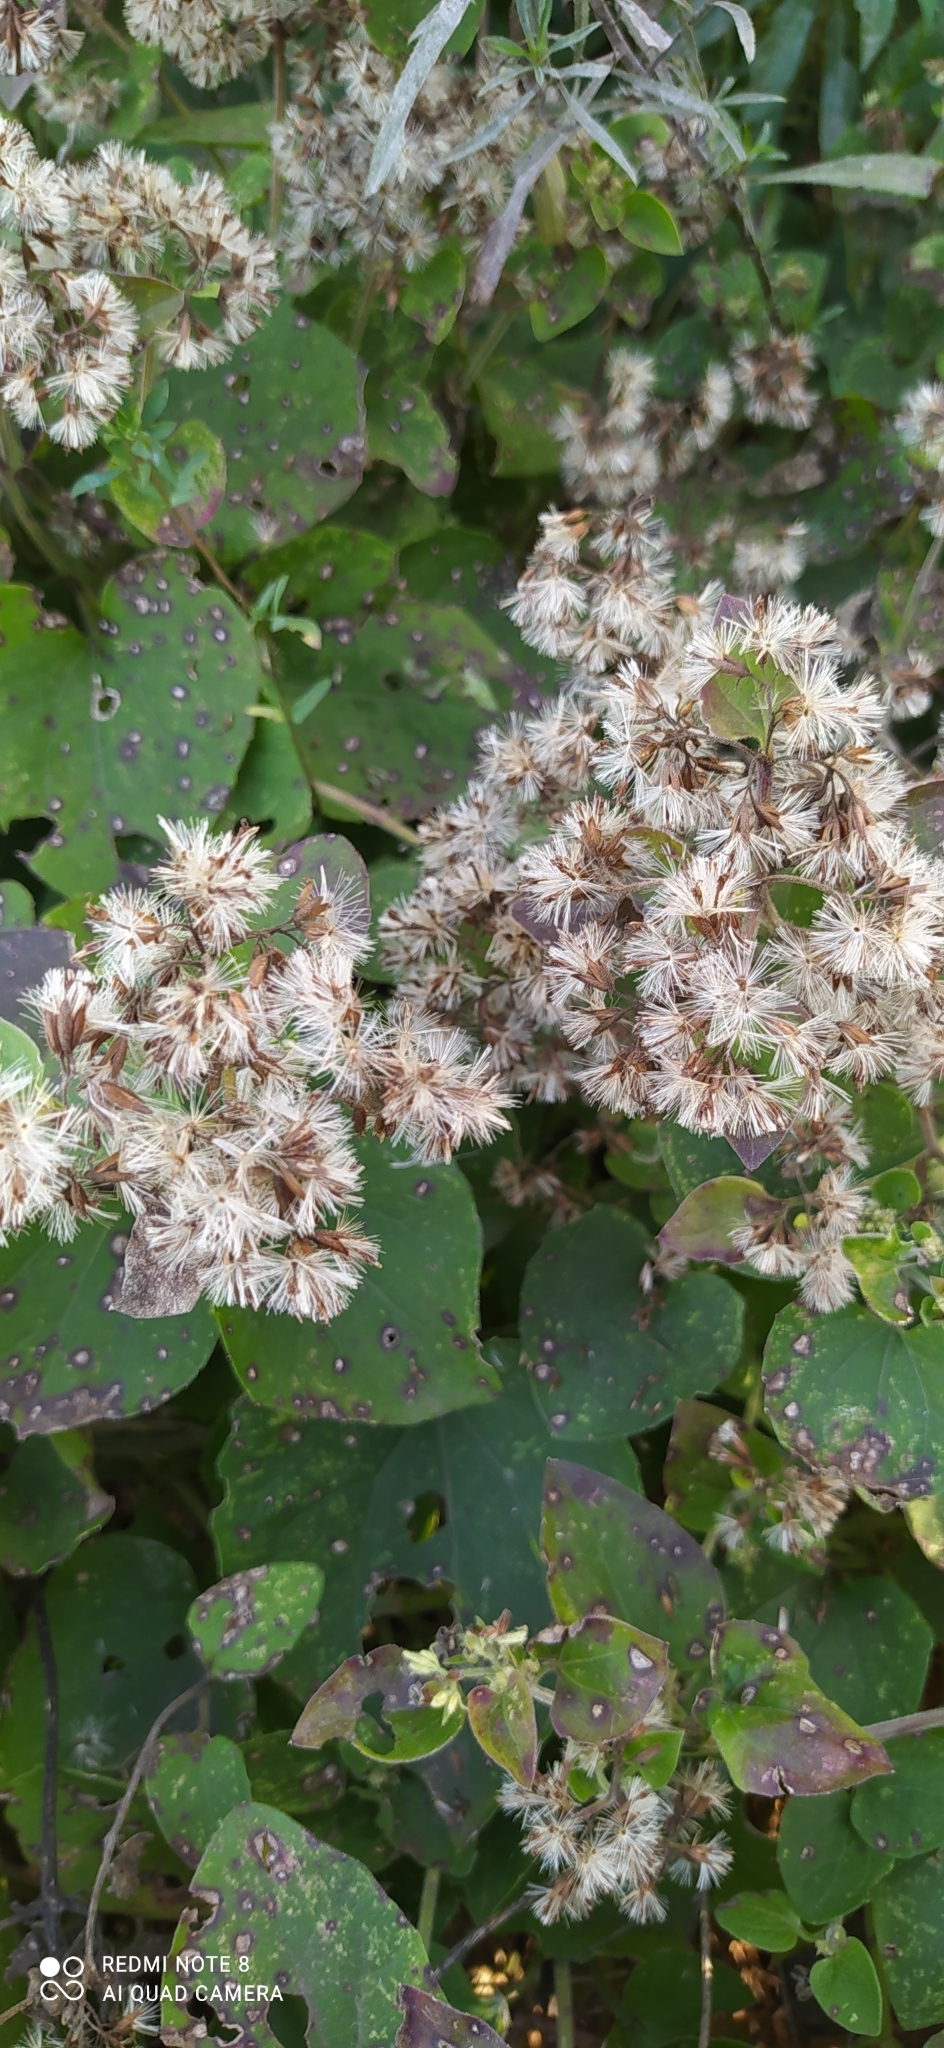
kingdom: Plantae
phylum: Tracheophyta
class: Magnoliopsida
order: Asterales
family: Asteraceae
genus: Mikania
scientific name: Mikania cordifolia
